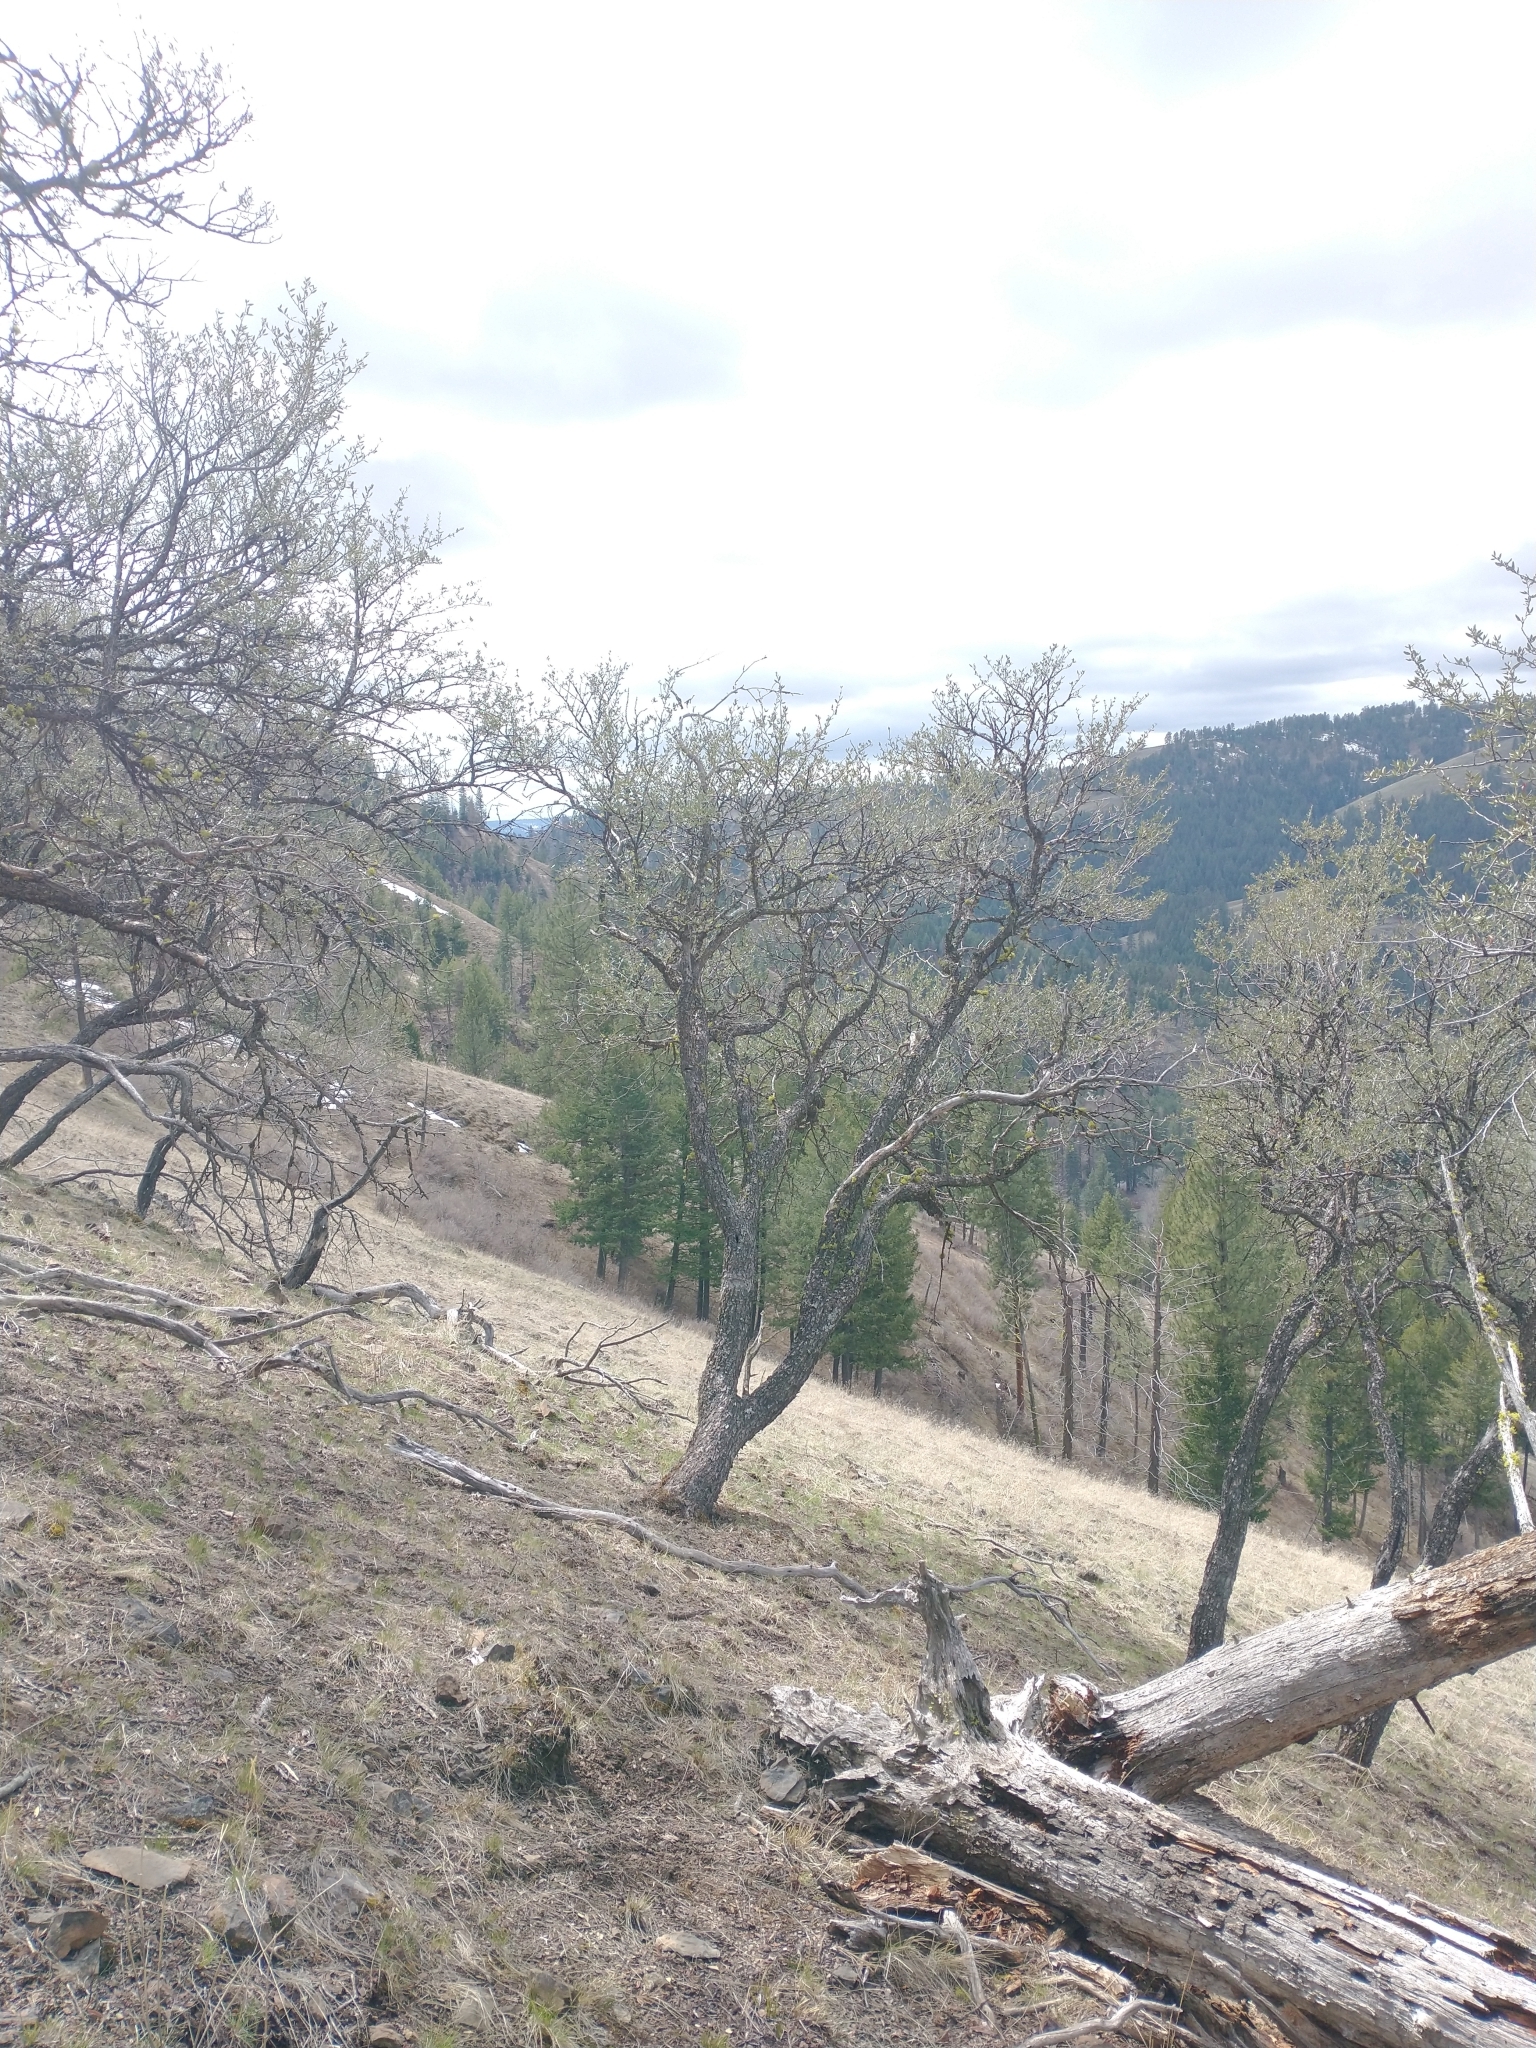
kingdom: Plantae
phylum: Tracheophyta
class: Magnoliopsida
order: Rosales
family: Rosaceae
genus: Cercocarpus
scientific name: Cercocarpus ledifolius
